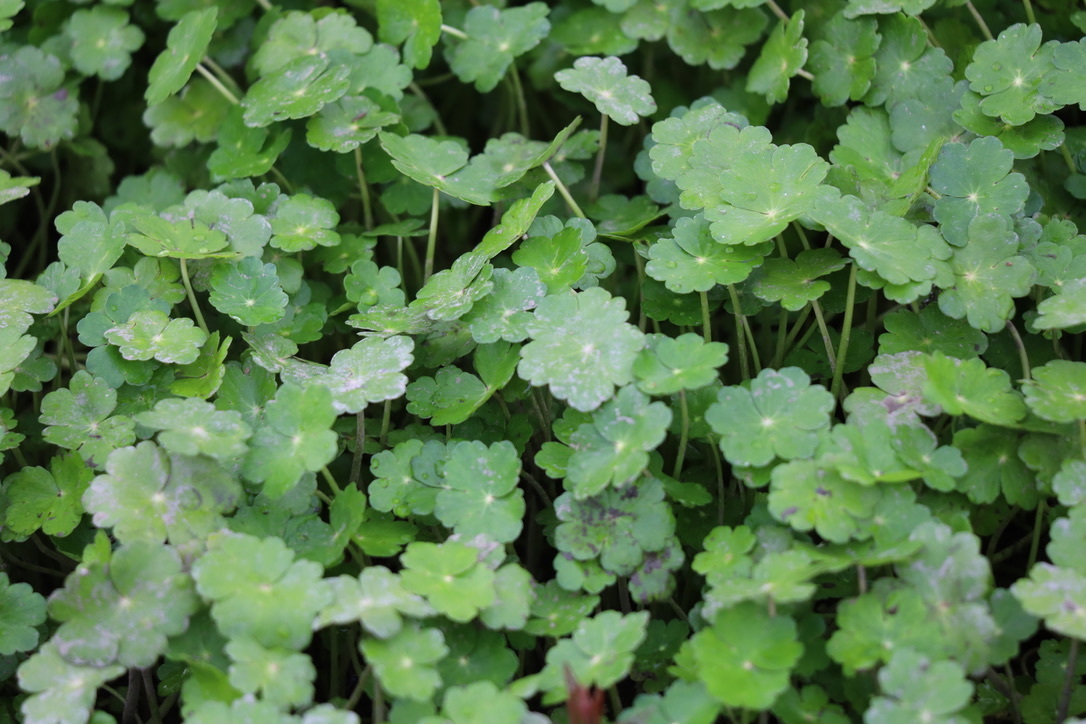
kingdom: Plantae
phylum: Tracheophyta
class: Magnoliopsida
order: Apiales
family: Araliaceae
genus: Hydrocotyle
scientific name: Hydrocotyle ranunculoides
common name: Floating pennywort
